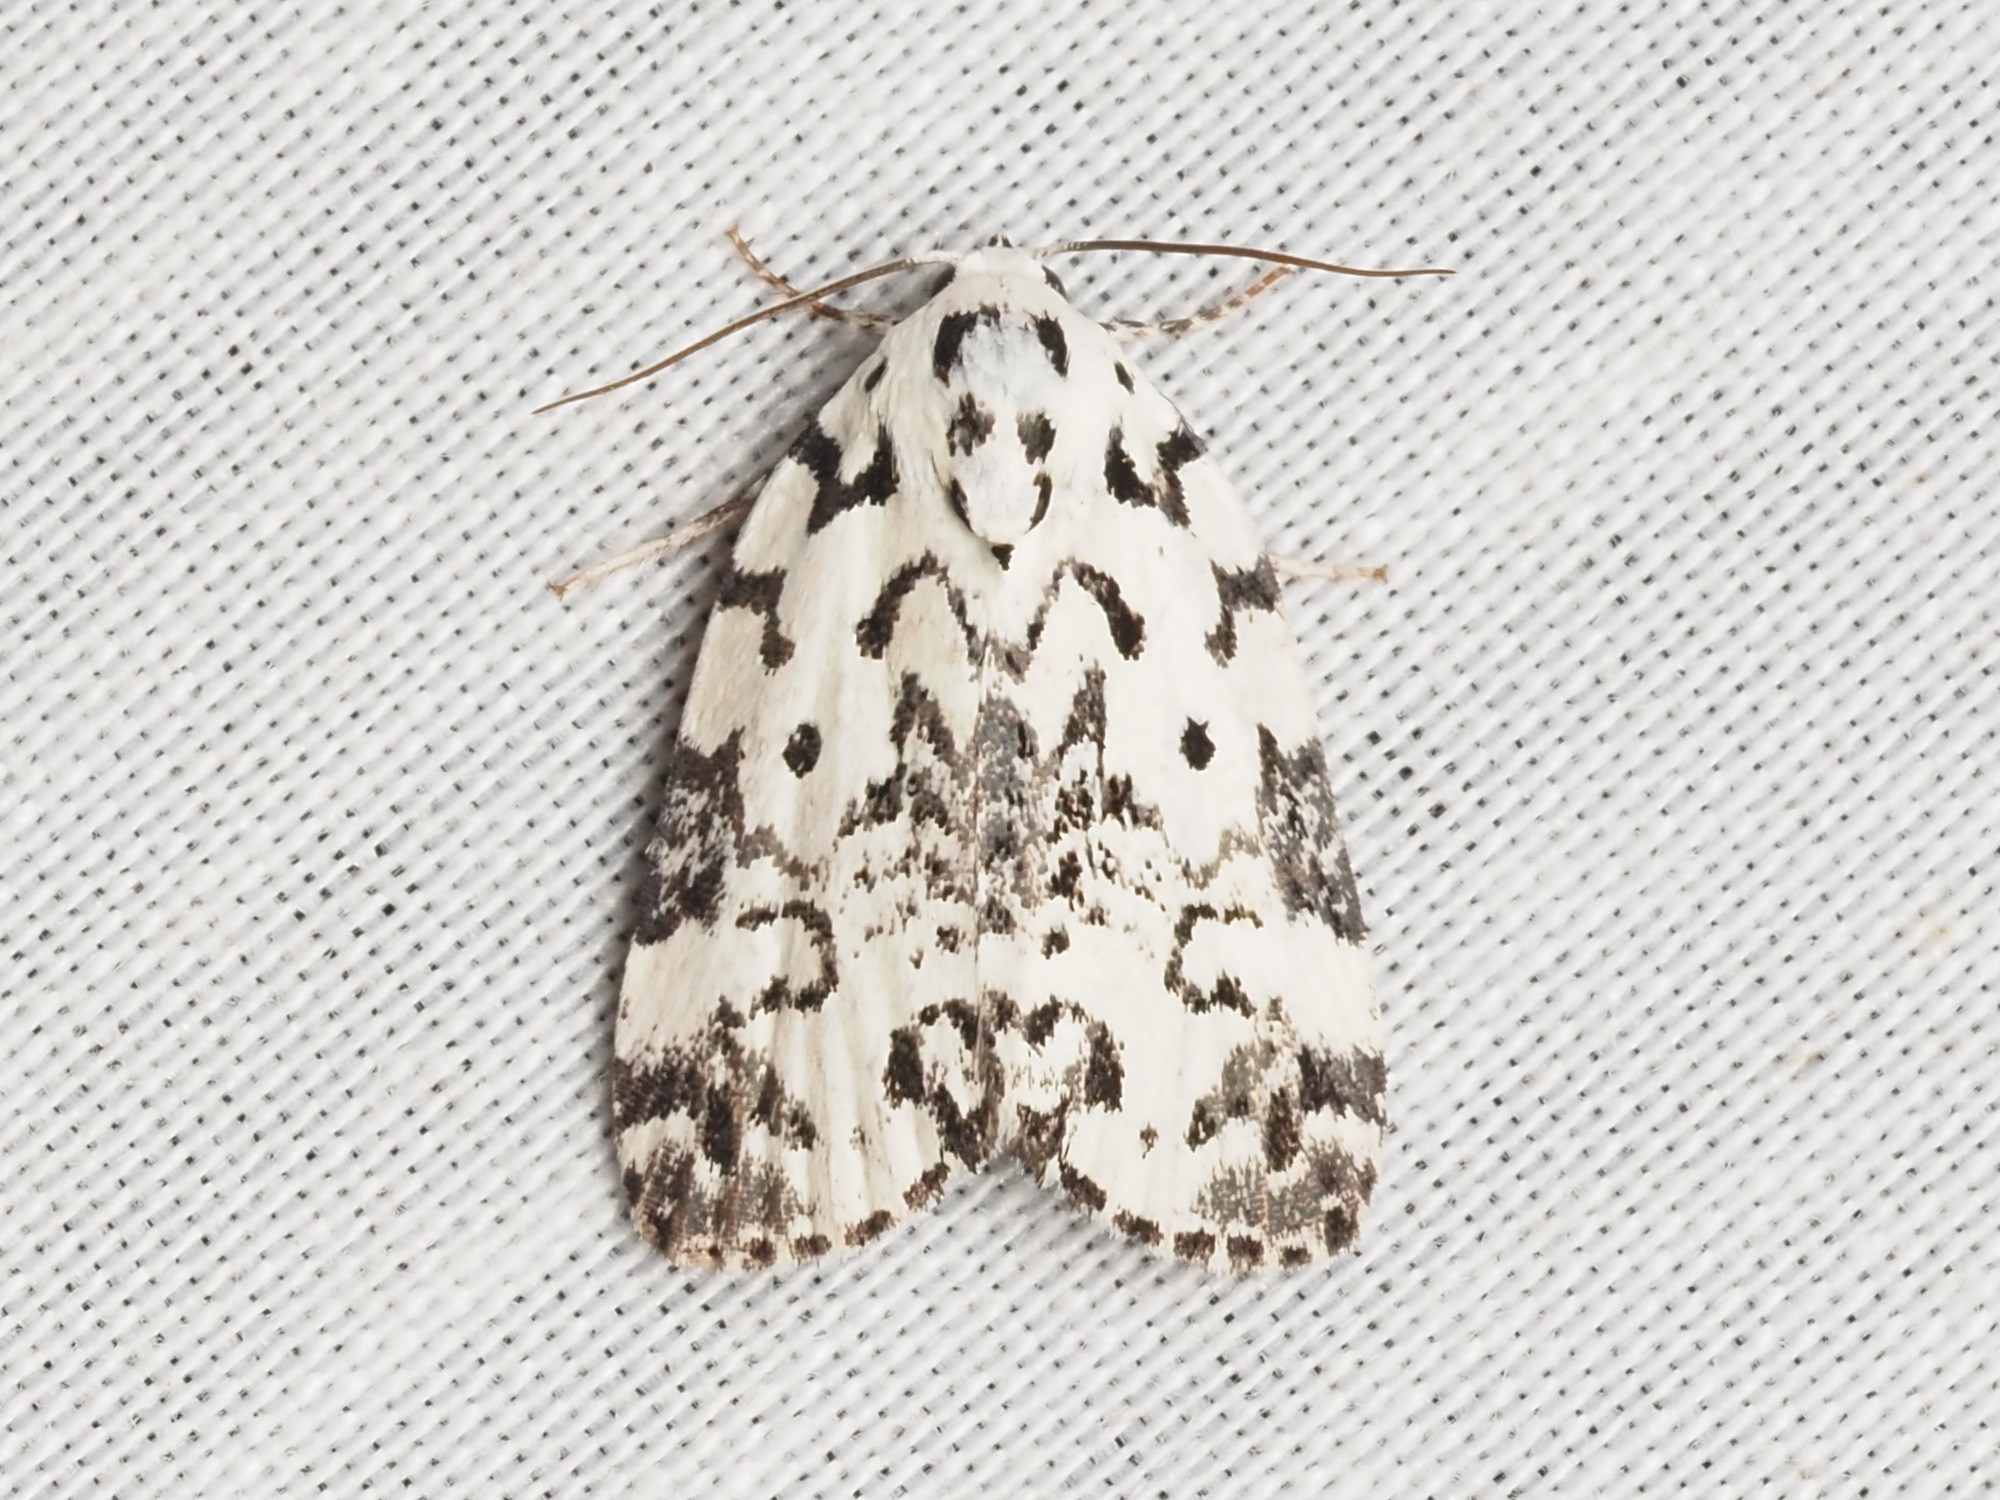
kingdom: Animalia
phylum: Arthropoda
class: Insecta
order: Lepidoptera
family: Noctuidae
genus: Polygrammate
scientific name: Polygrammate hebraeicum
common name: Hebrew moth
